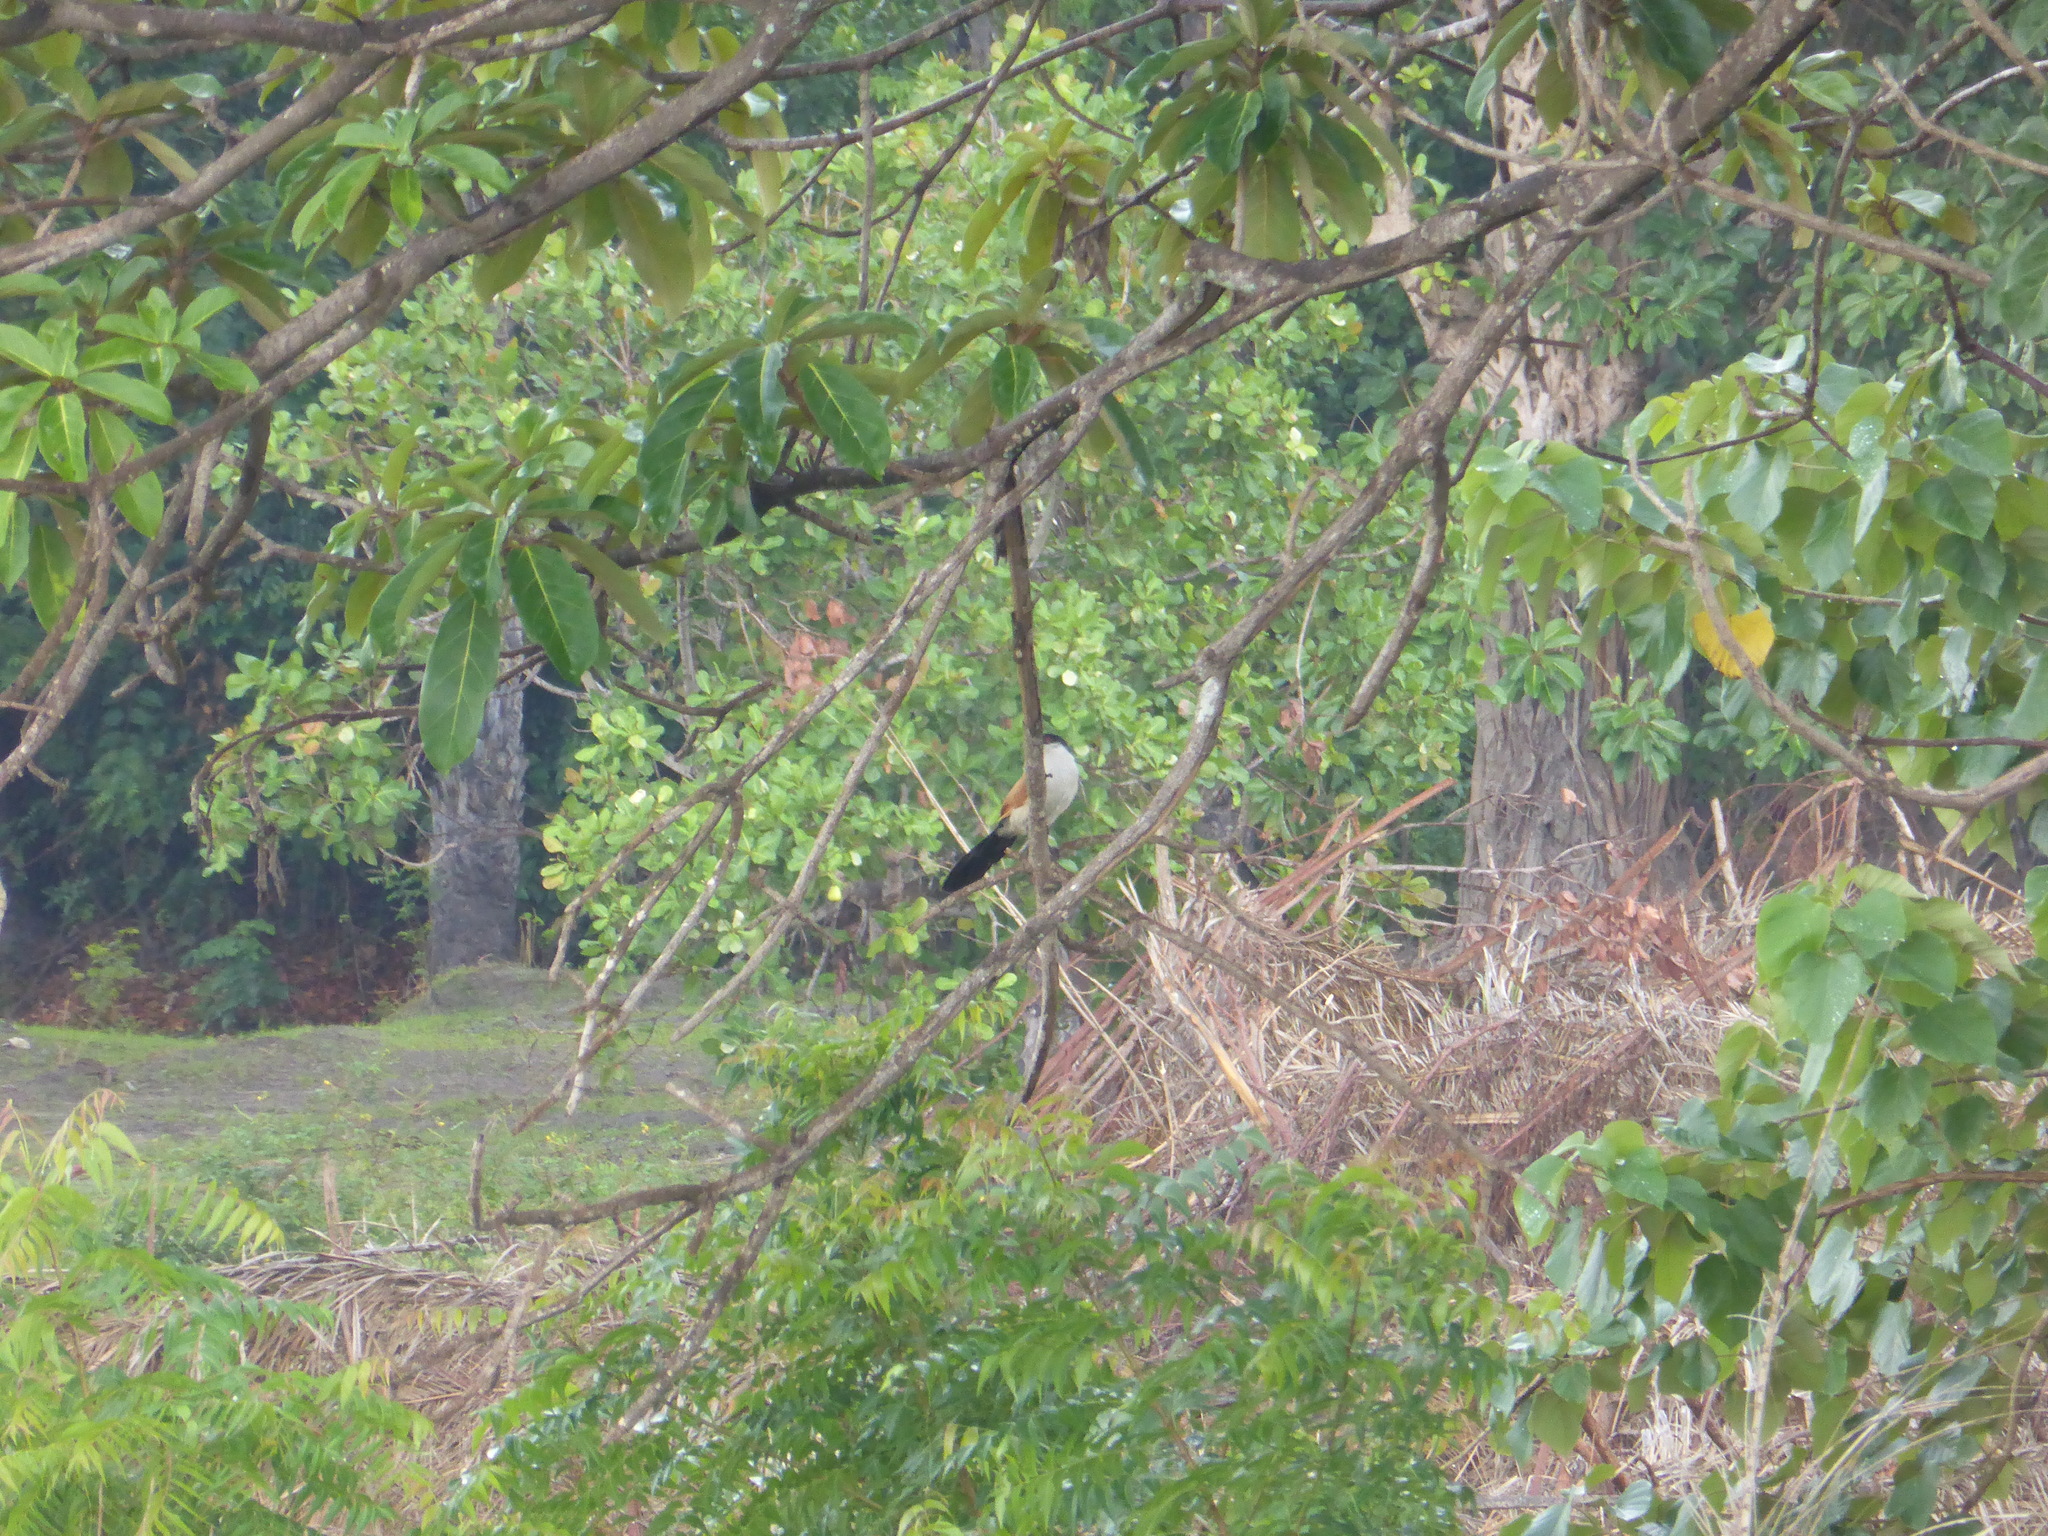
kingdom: Animalia
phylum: Chordata
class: Aves
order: Cuculiformes
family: Cuculidae
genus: Centropus
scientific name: Centropus senegalensis
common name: Senegal coucal
